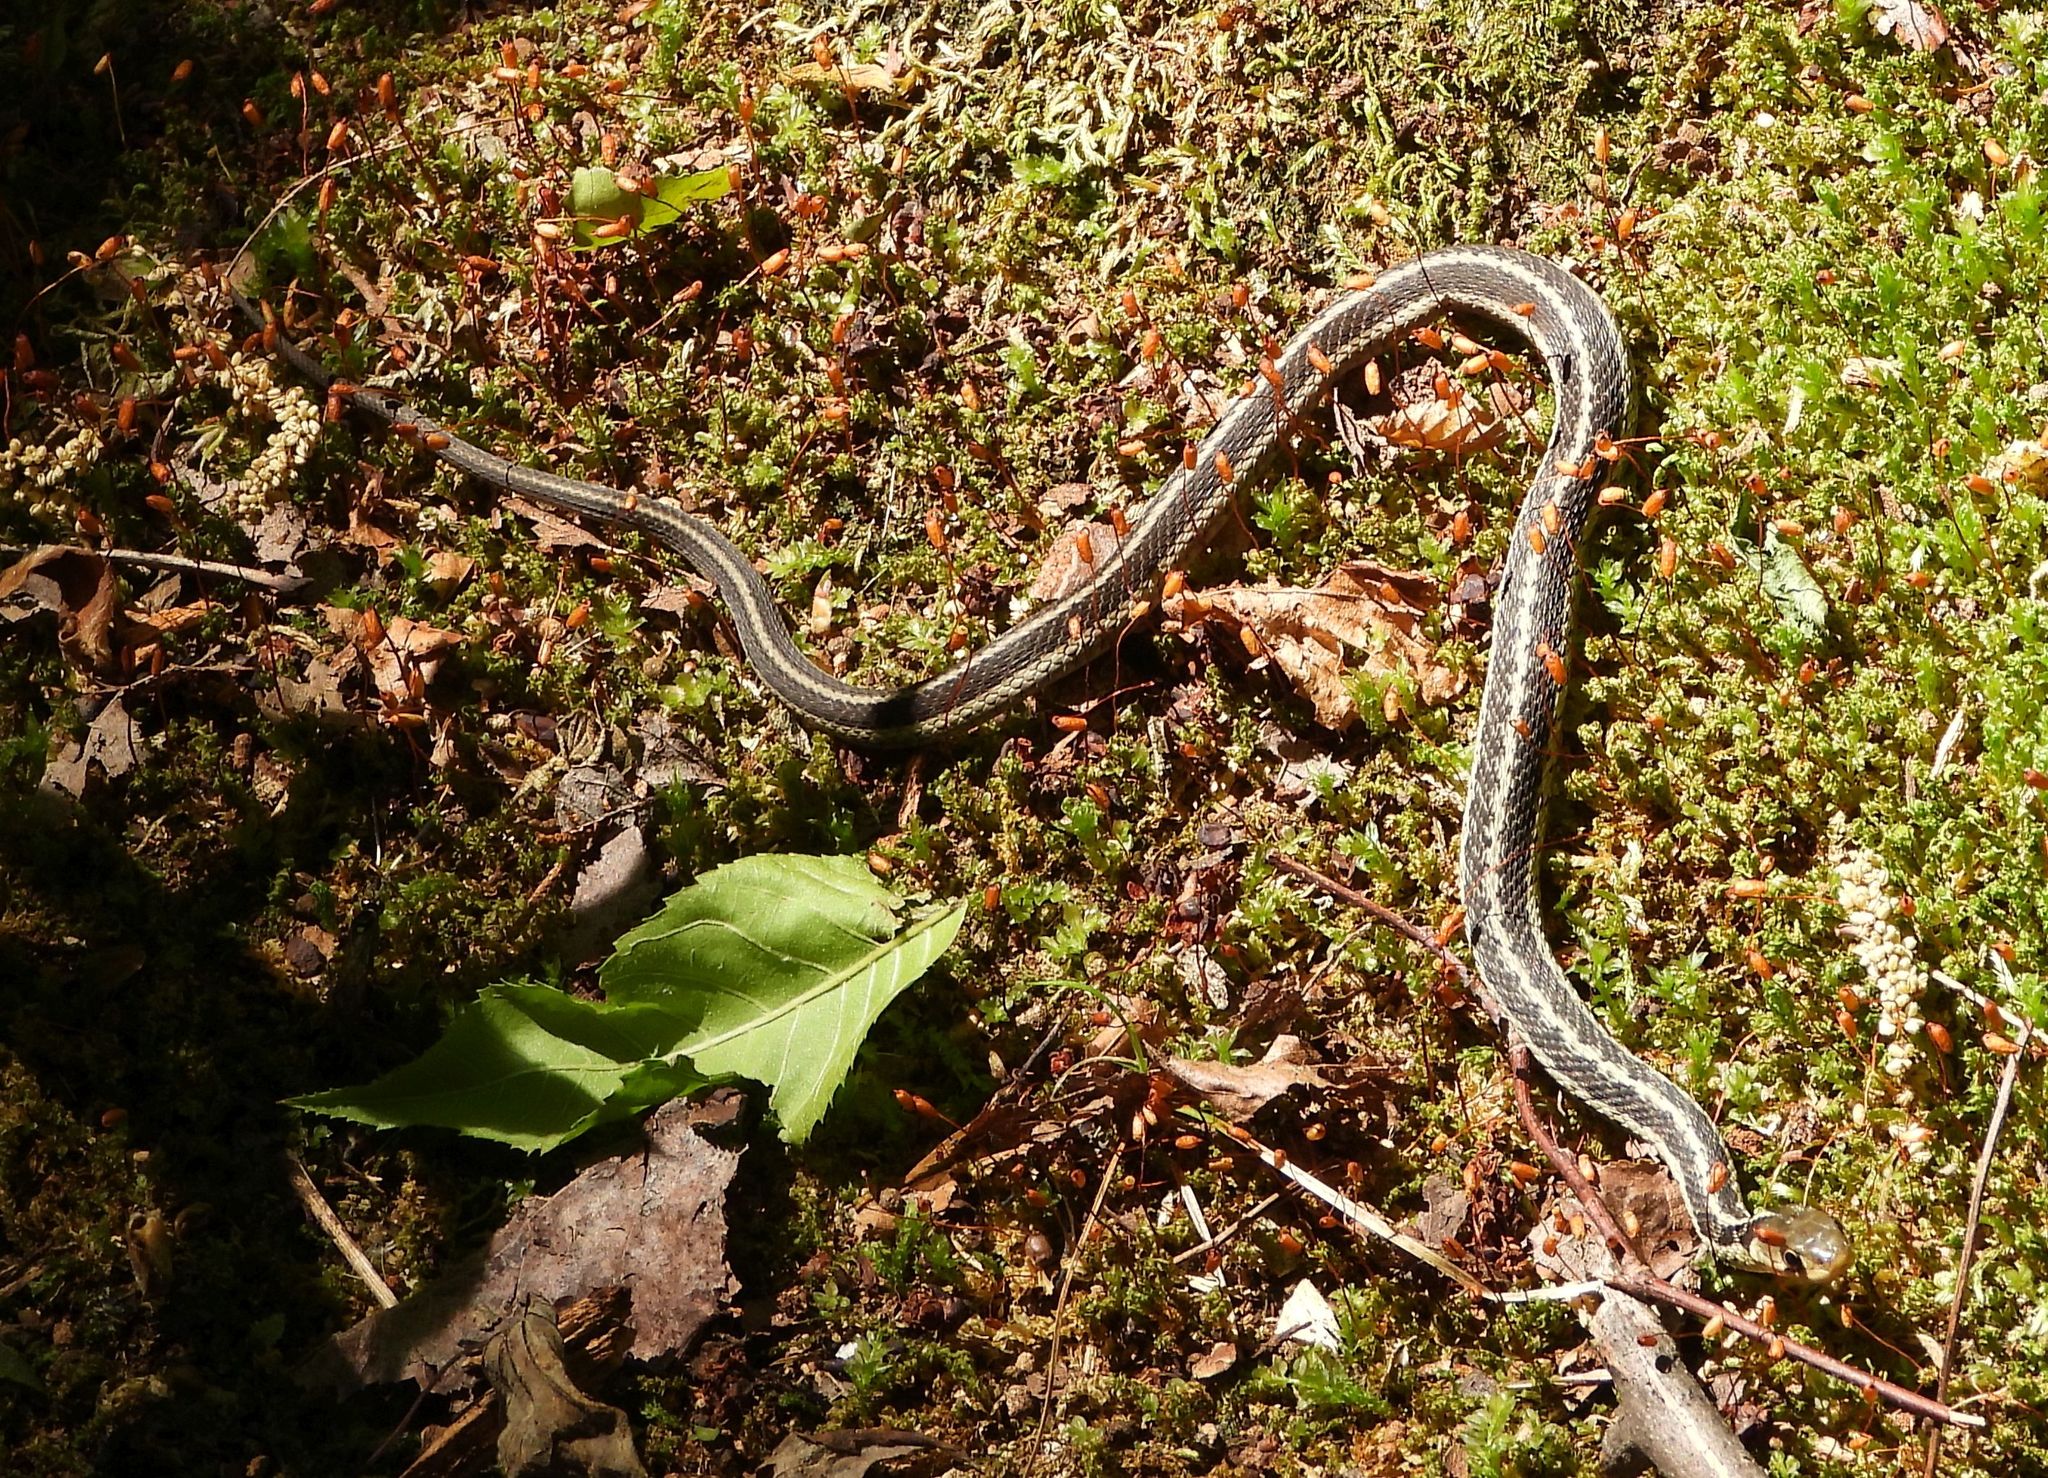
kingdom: Animalia
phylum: Chordata
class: Squamata
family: Colubridae
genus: Thamnophis
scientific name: Thamnophis sirtalis
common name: Common garter snake
